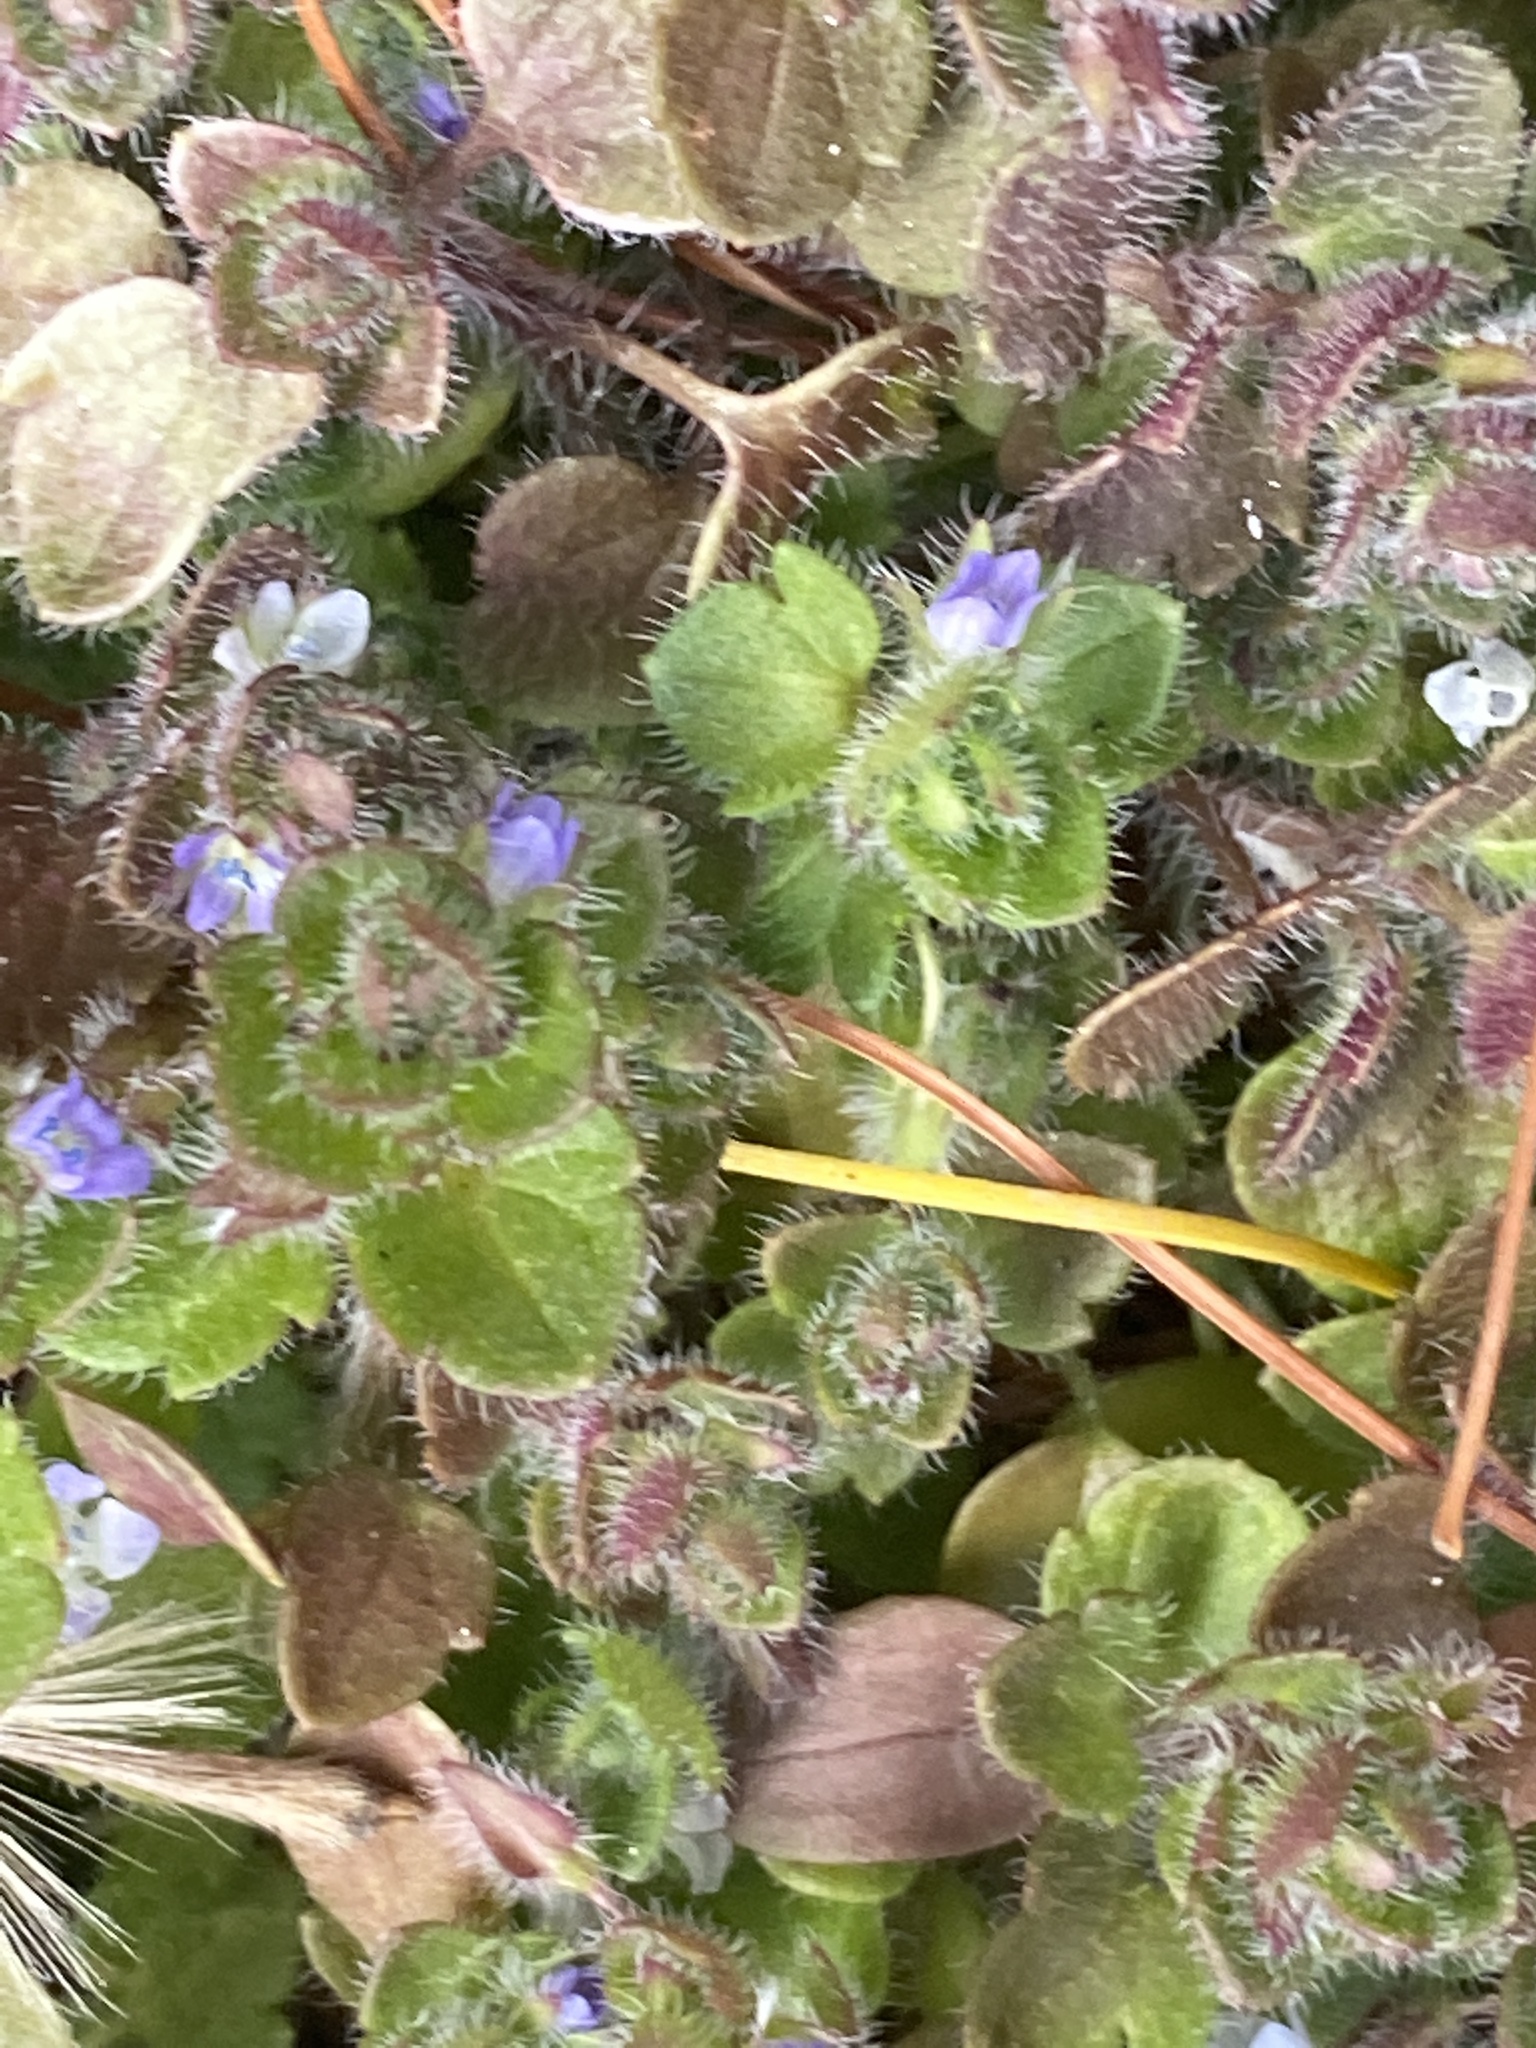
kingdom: Plantae
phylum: Tracheophyta
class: Magnoliopsida
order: Lamiales
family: Plantaginaceae
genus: Veronica
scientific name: Veronica hederifolia
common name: Ivy-leaved speedwell
